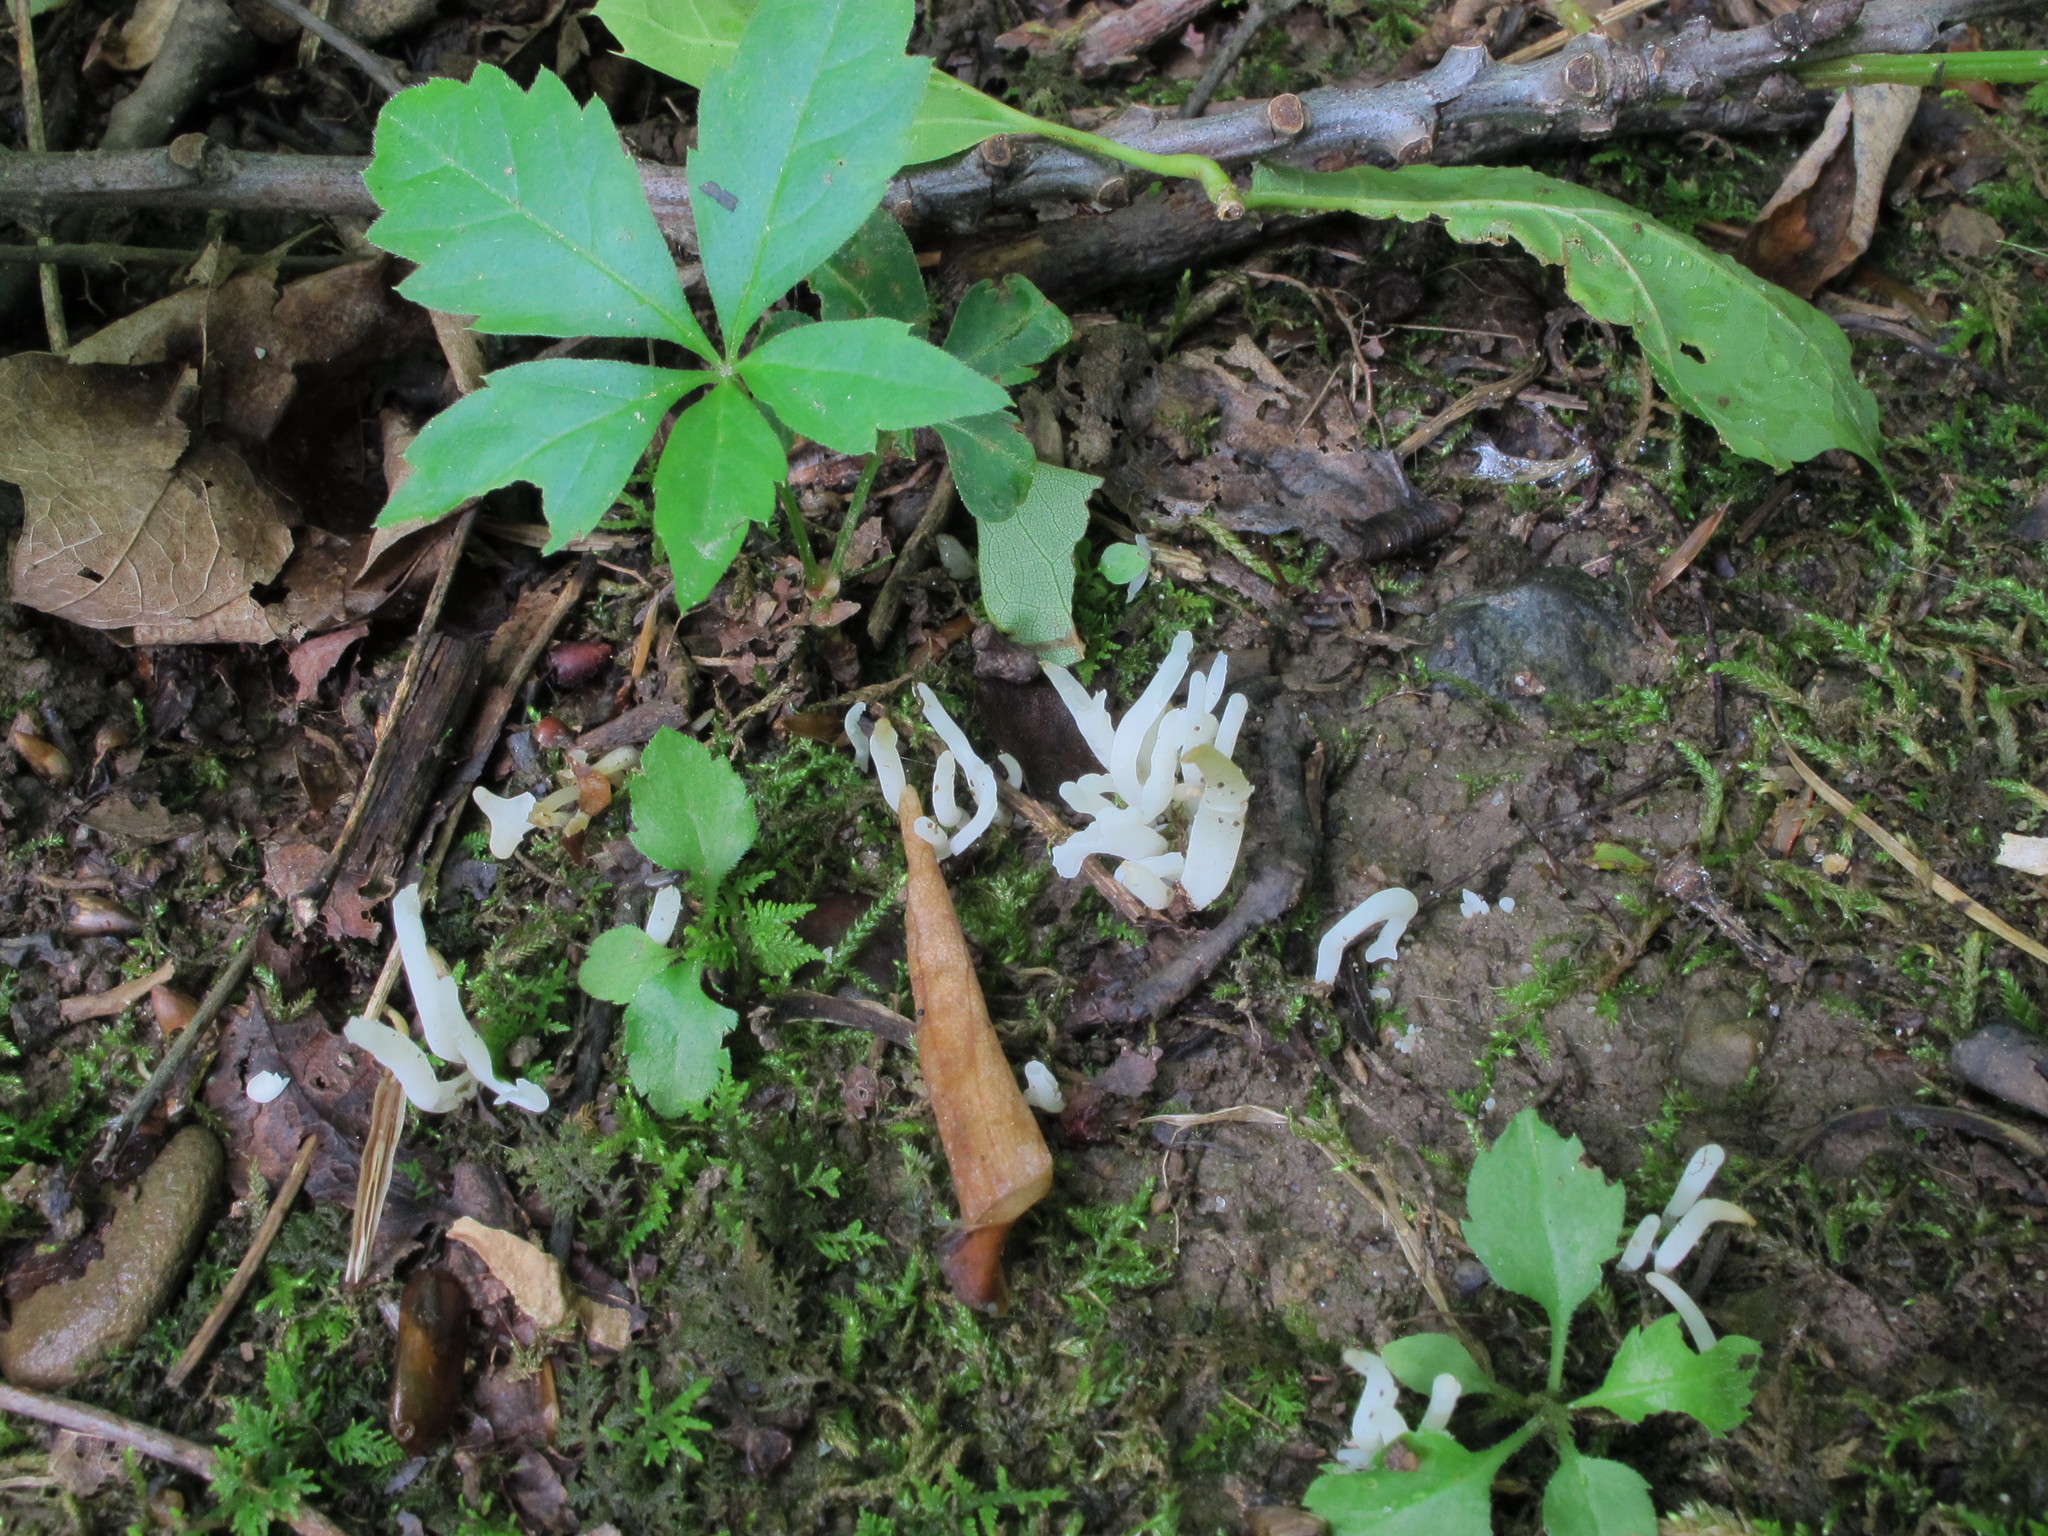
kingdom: Fungi
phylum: Basidiomycota
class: Agaricomycetes
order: Agaricales
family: Clavariaceae
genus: Clavaria
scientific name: Clavaria fragilis
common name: White spindles
